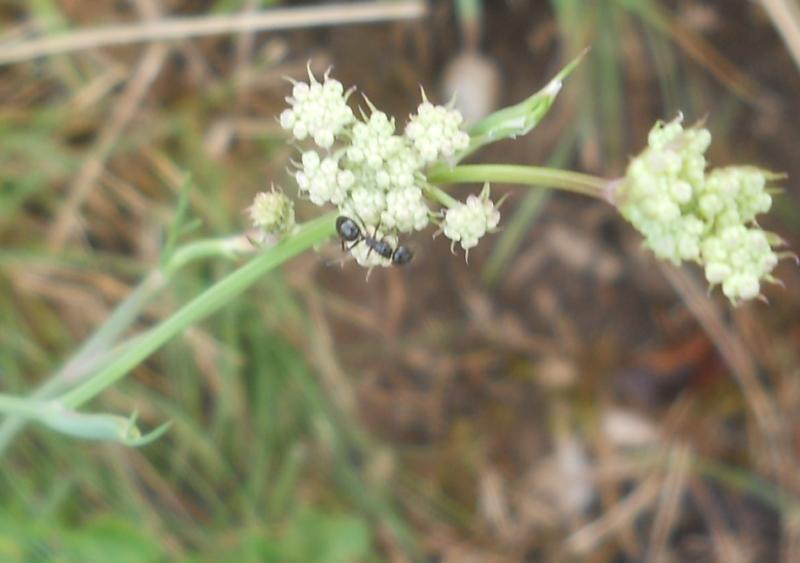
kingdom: Plantae
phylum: Tracheophyta
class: Magnoliopsida
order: Apiales
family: Apiaceae
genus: Hippomarathrum
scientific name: Hippomarathrum
